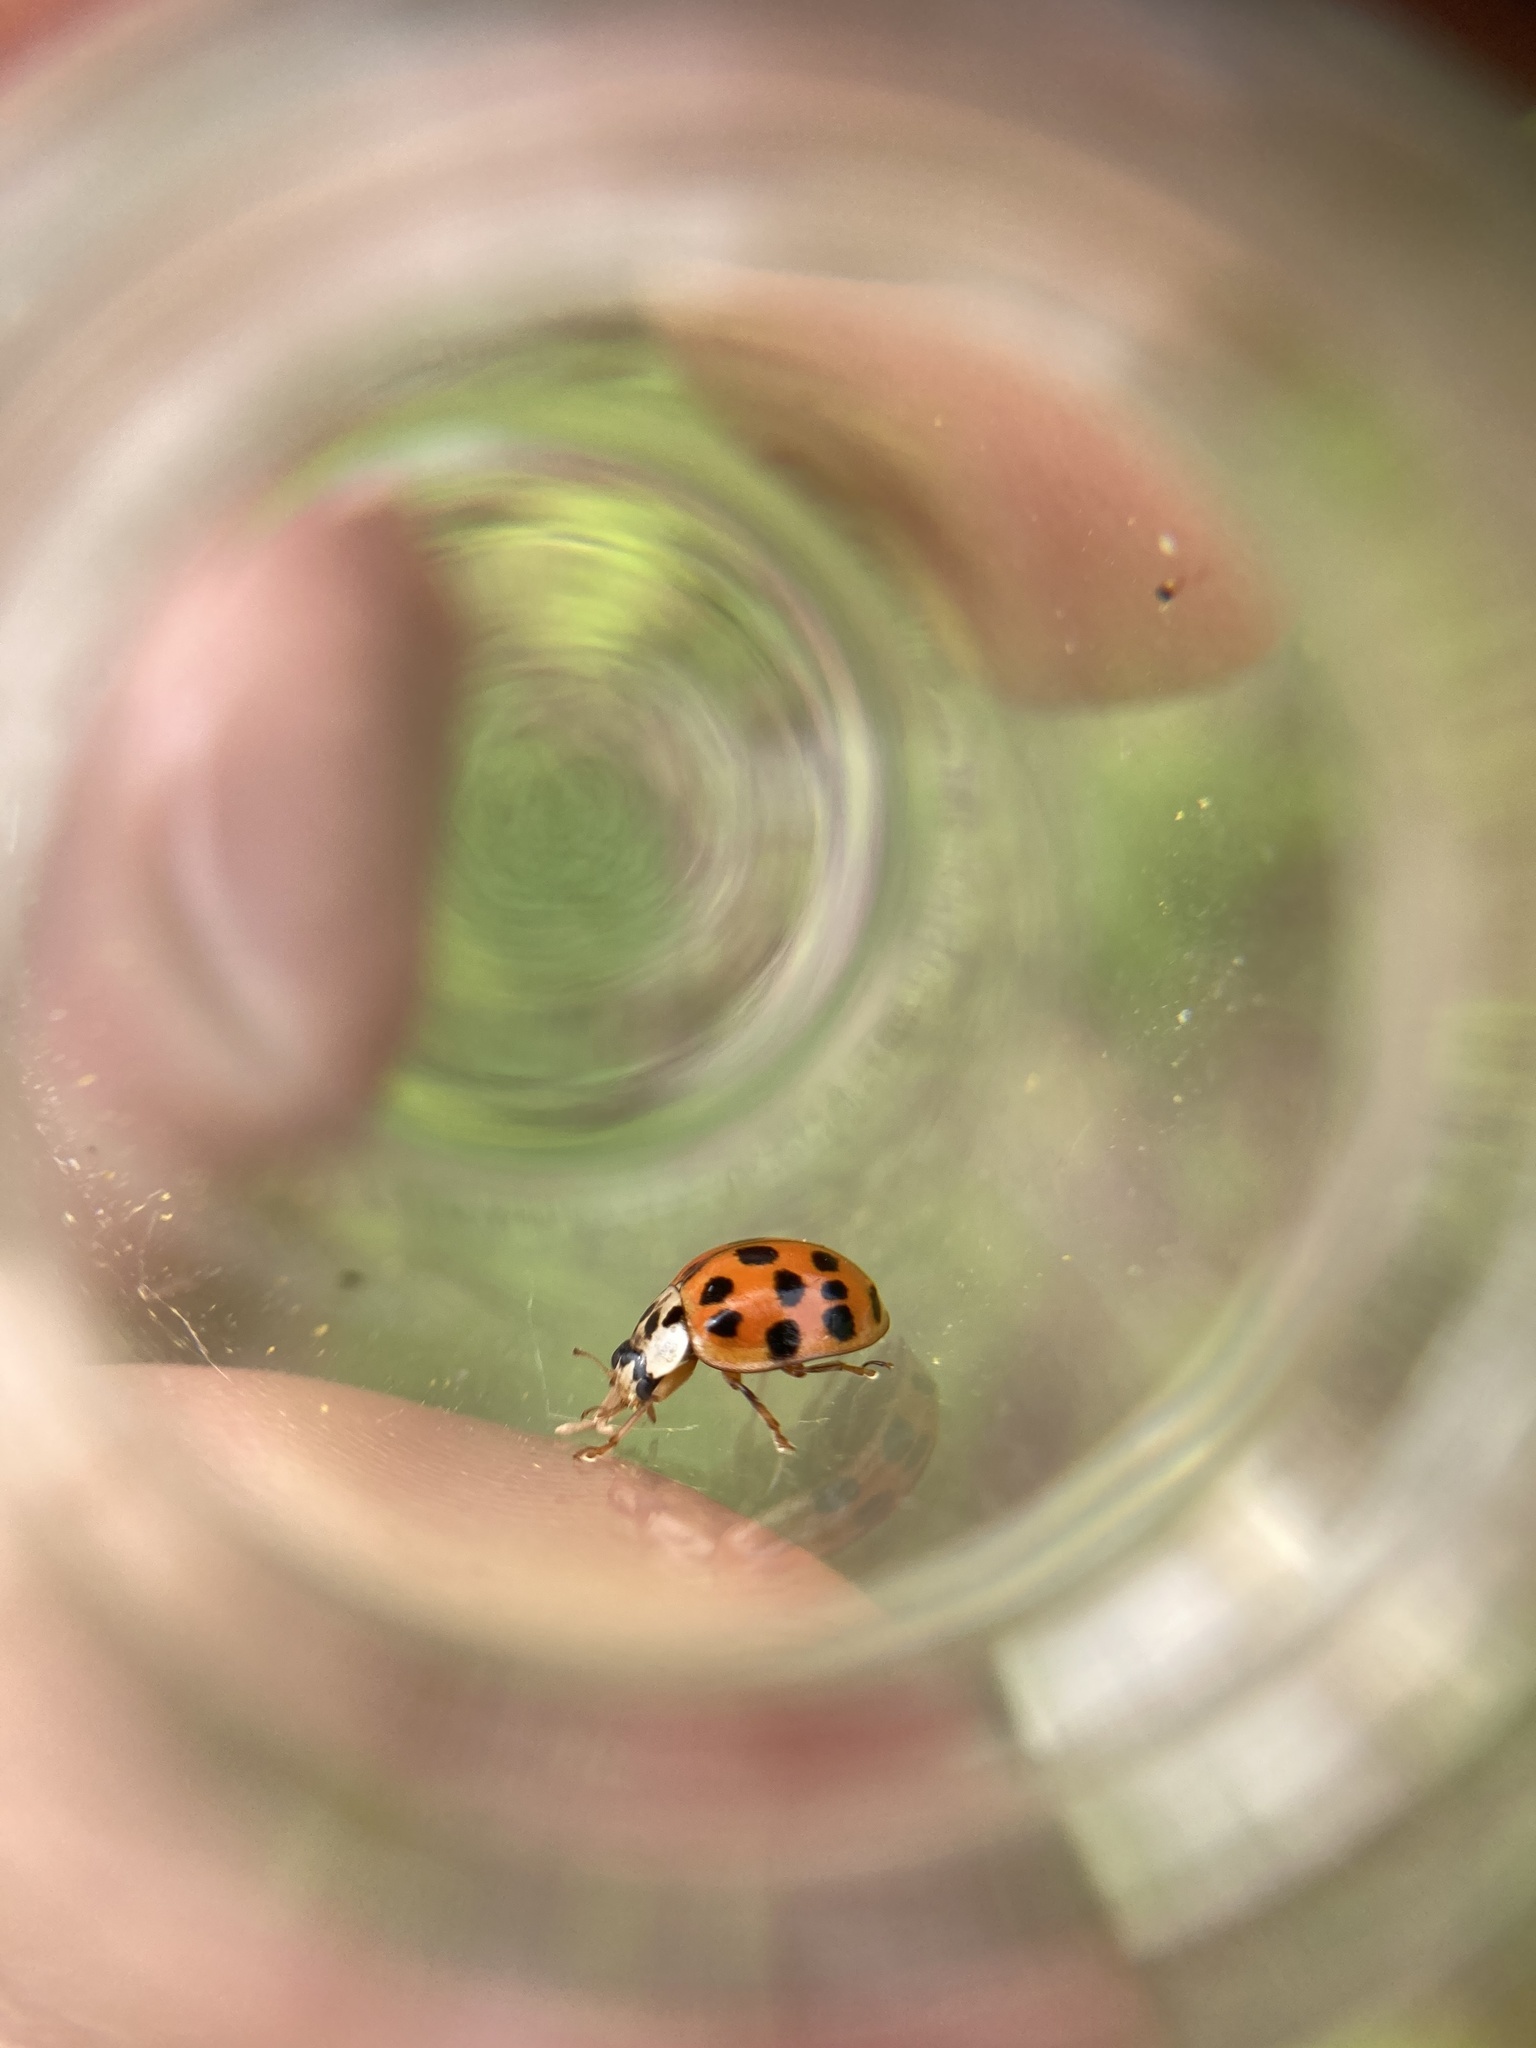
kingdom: Animalia
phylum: Arthropoda
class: Insecta
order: Coleoptera
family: Coccinellidae
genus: Harmonia
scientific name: Harmonia axyridis
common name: Harlequin ladybird
